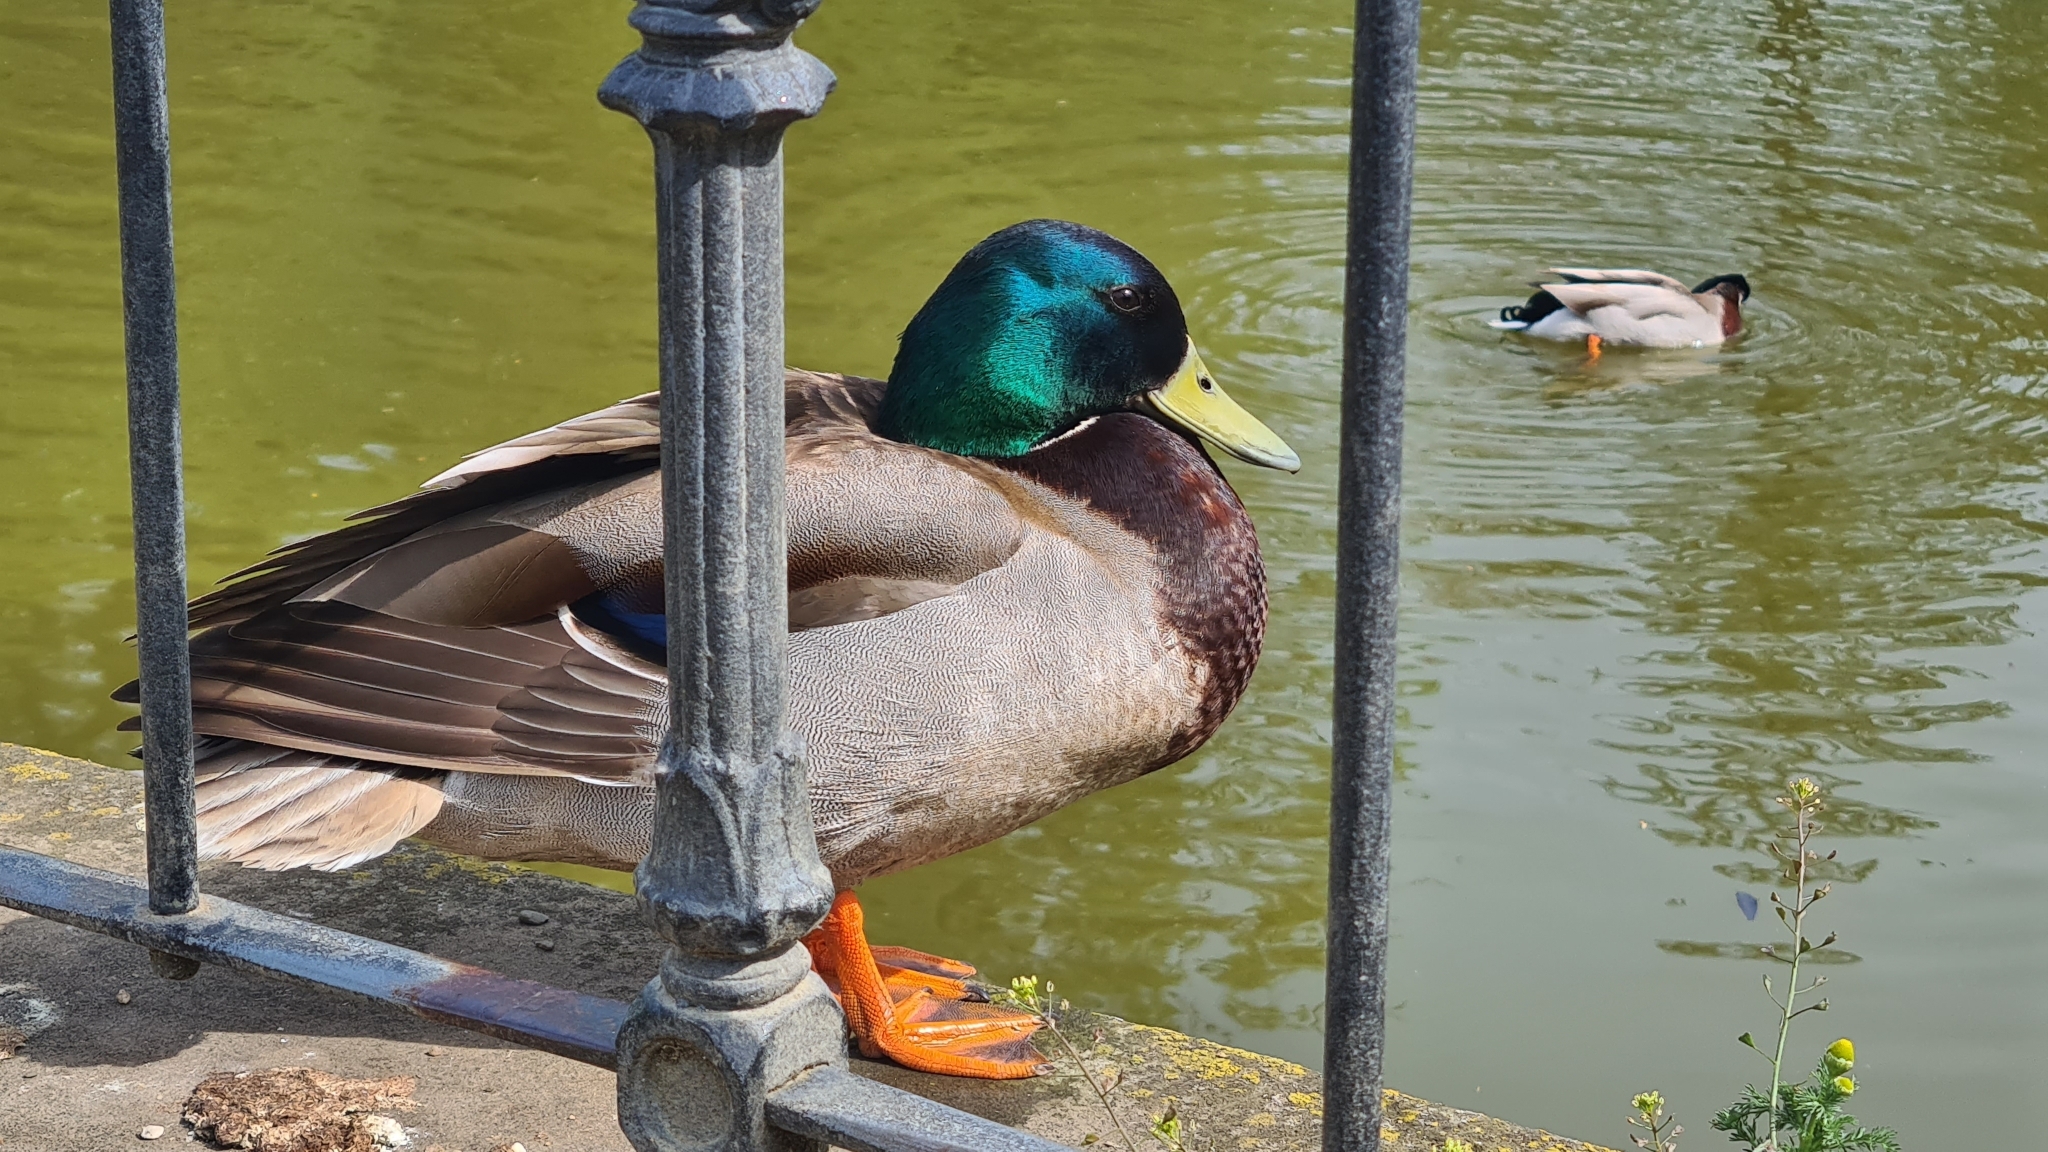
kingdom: Animalia
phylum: Chordata
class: Aves
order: Anseriformes
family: Anatidae
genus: Anas
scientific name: Anas platyrhynchos
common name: Mallard
